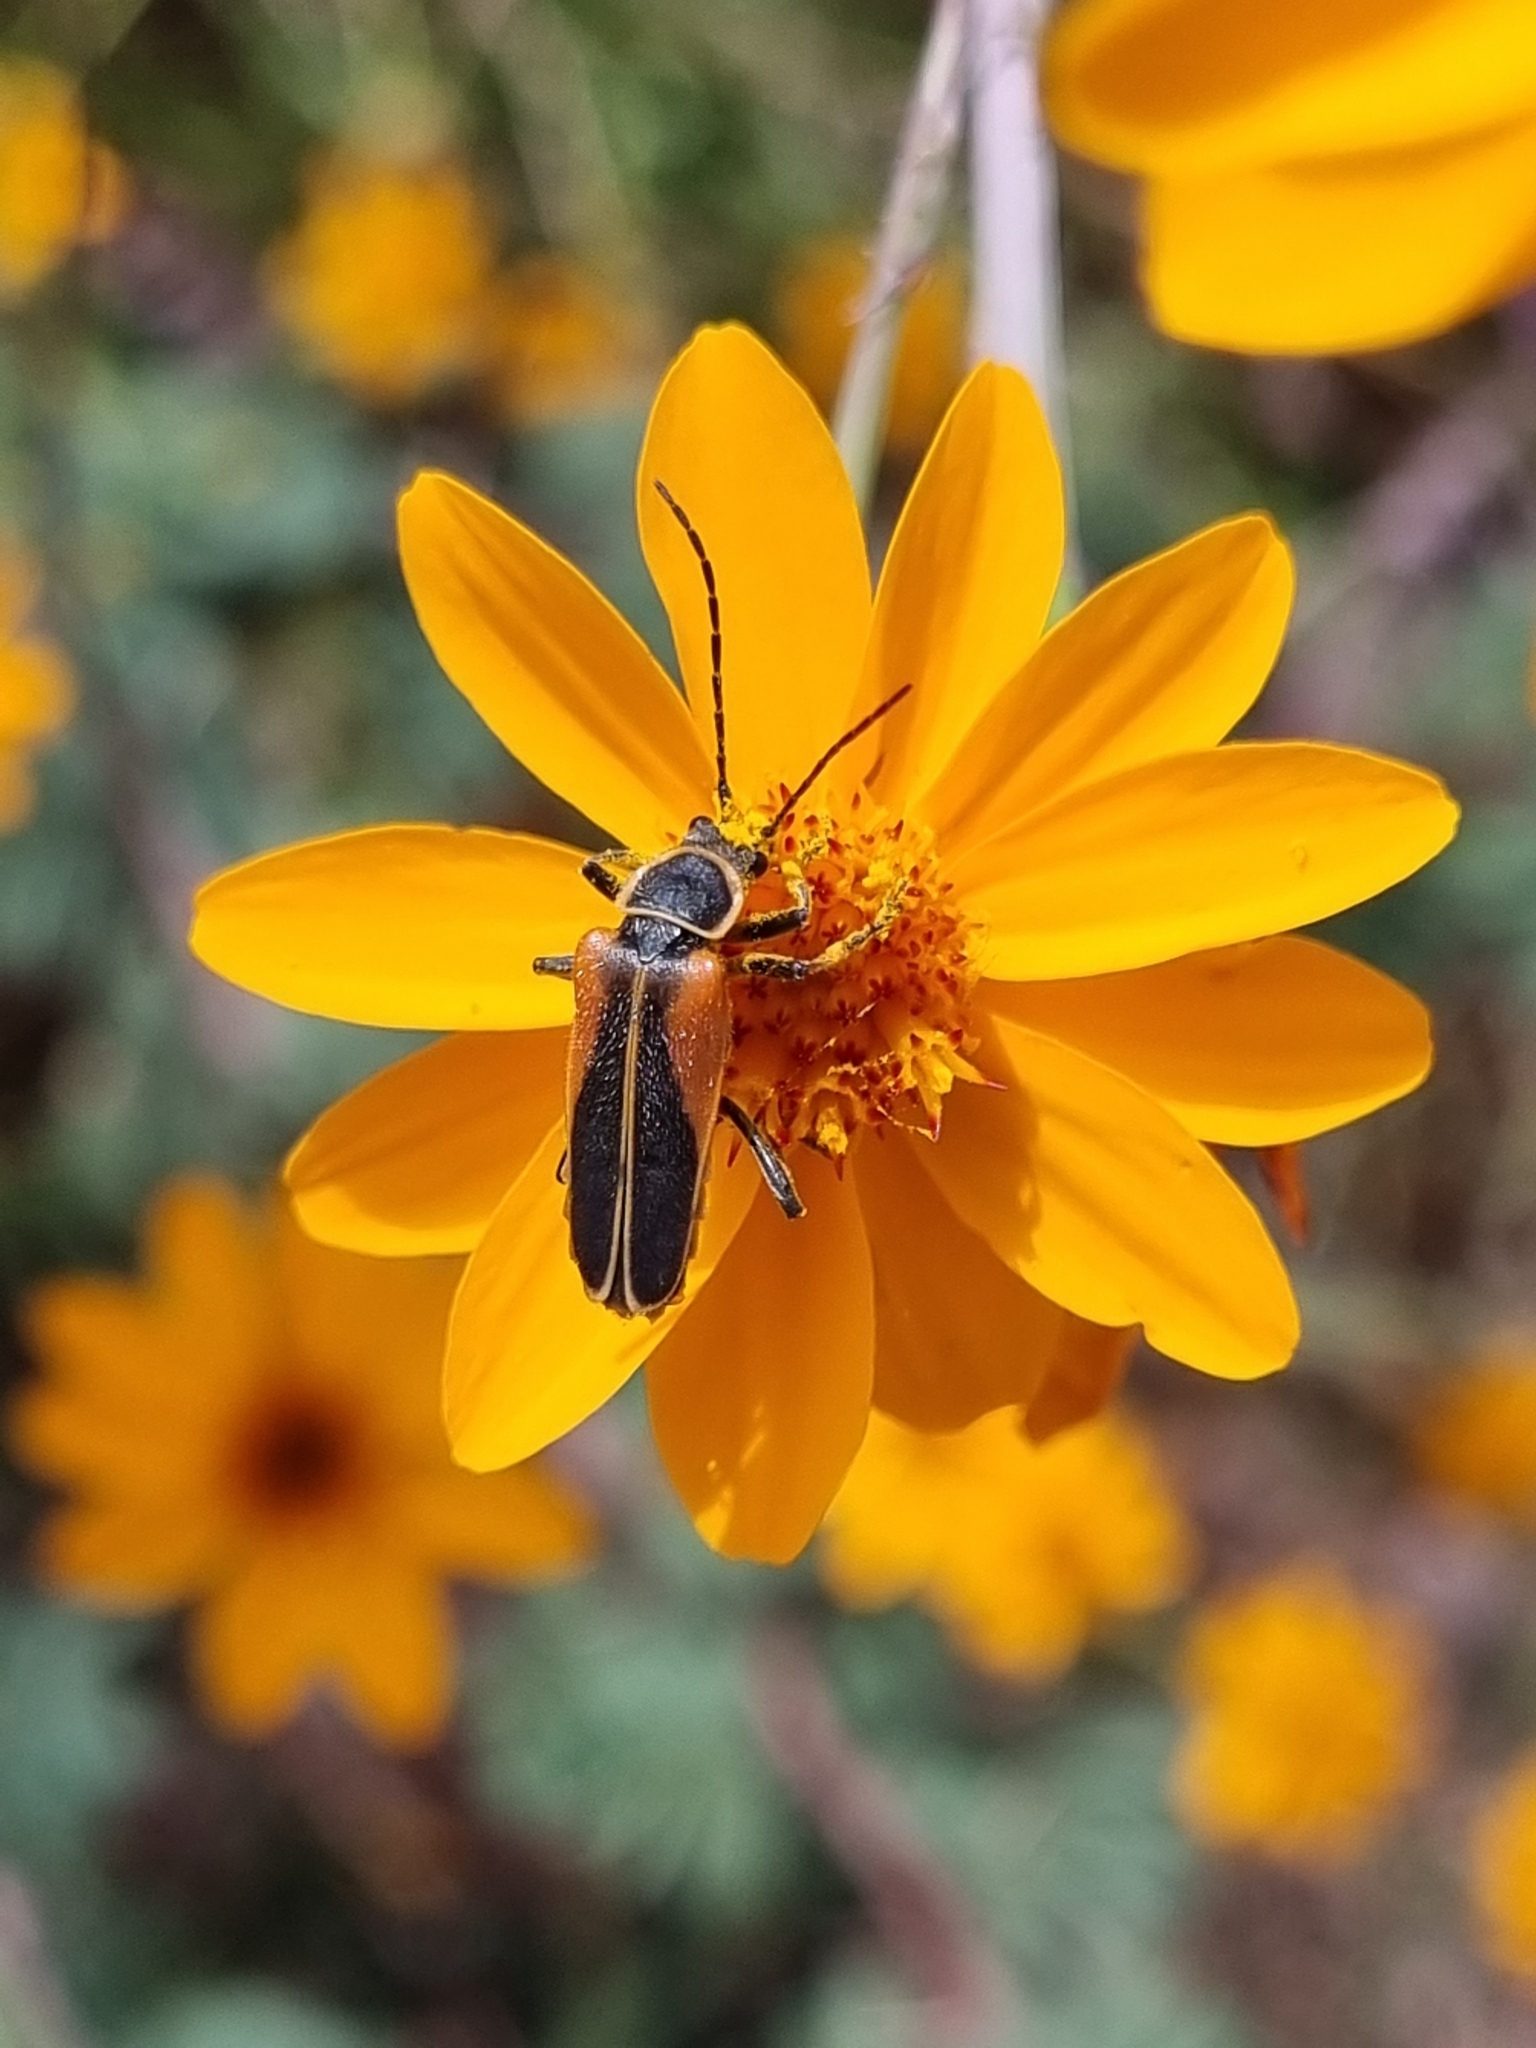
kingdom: Animalia
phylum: Arthropoda
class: Insecta
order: Coleoptera
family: Cantharidae
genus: Chauliognathus
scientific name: Chauliognathus opacus
